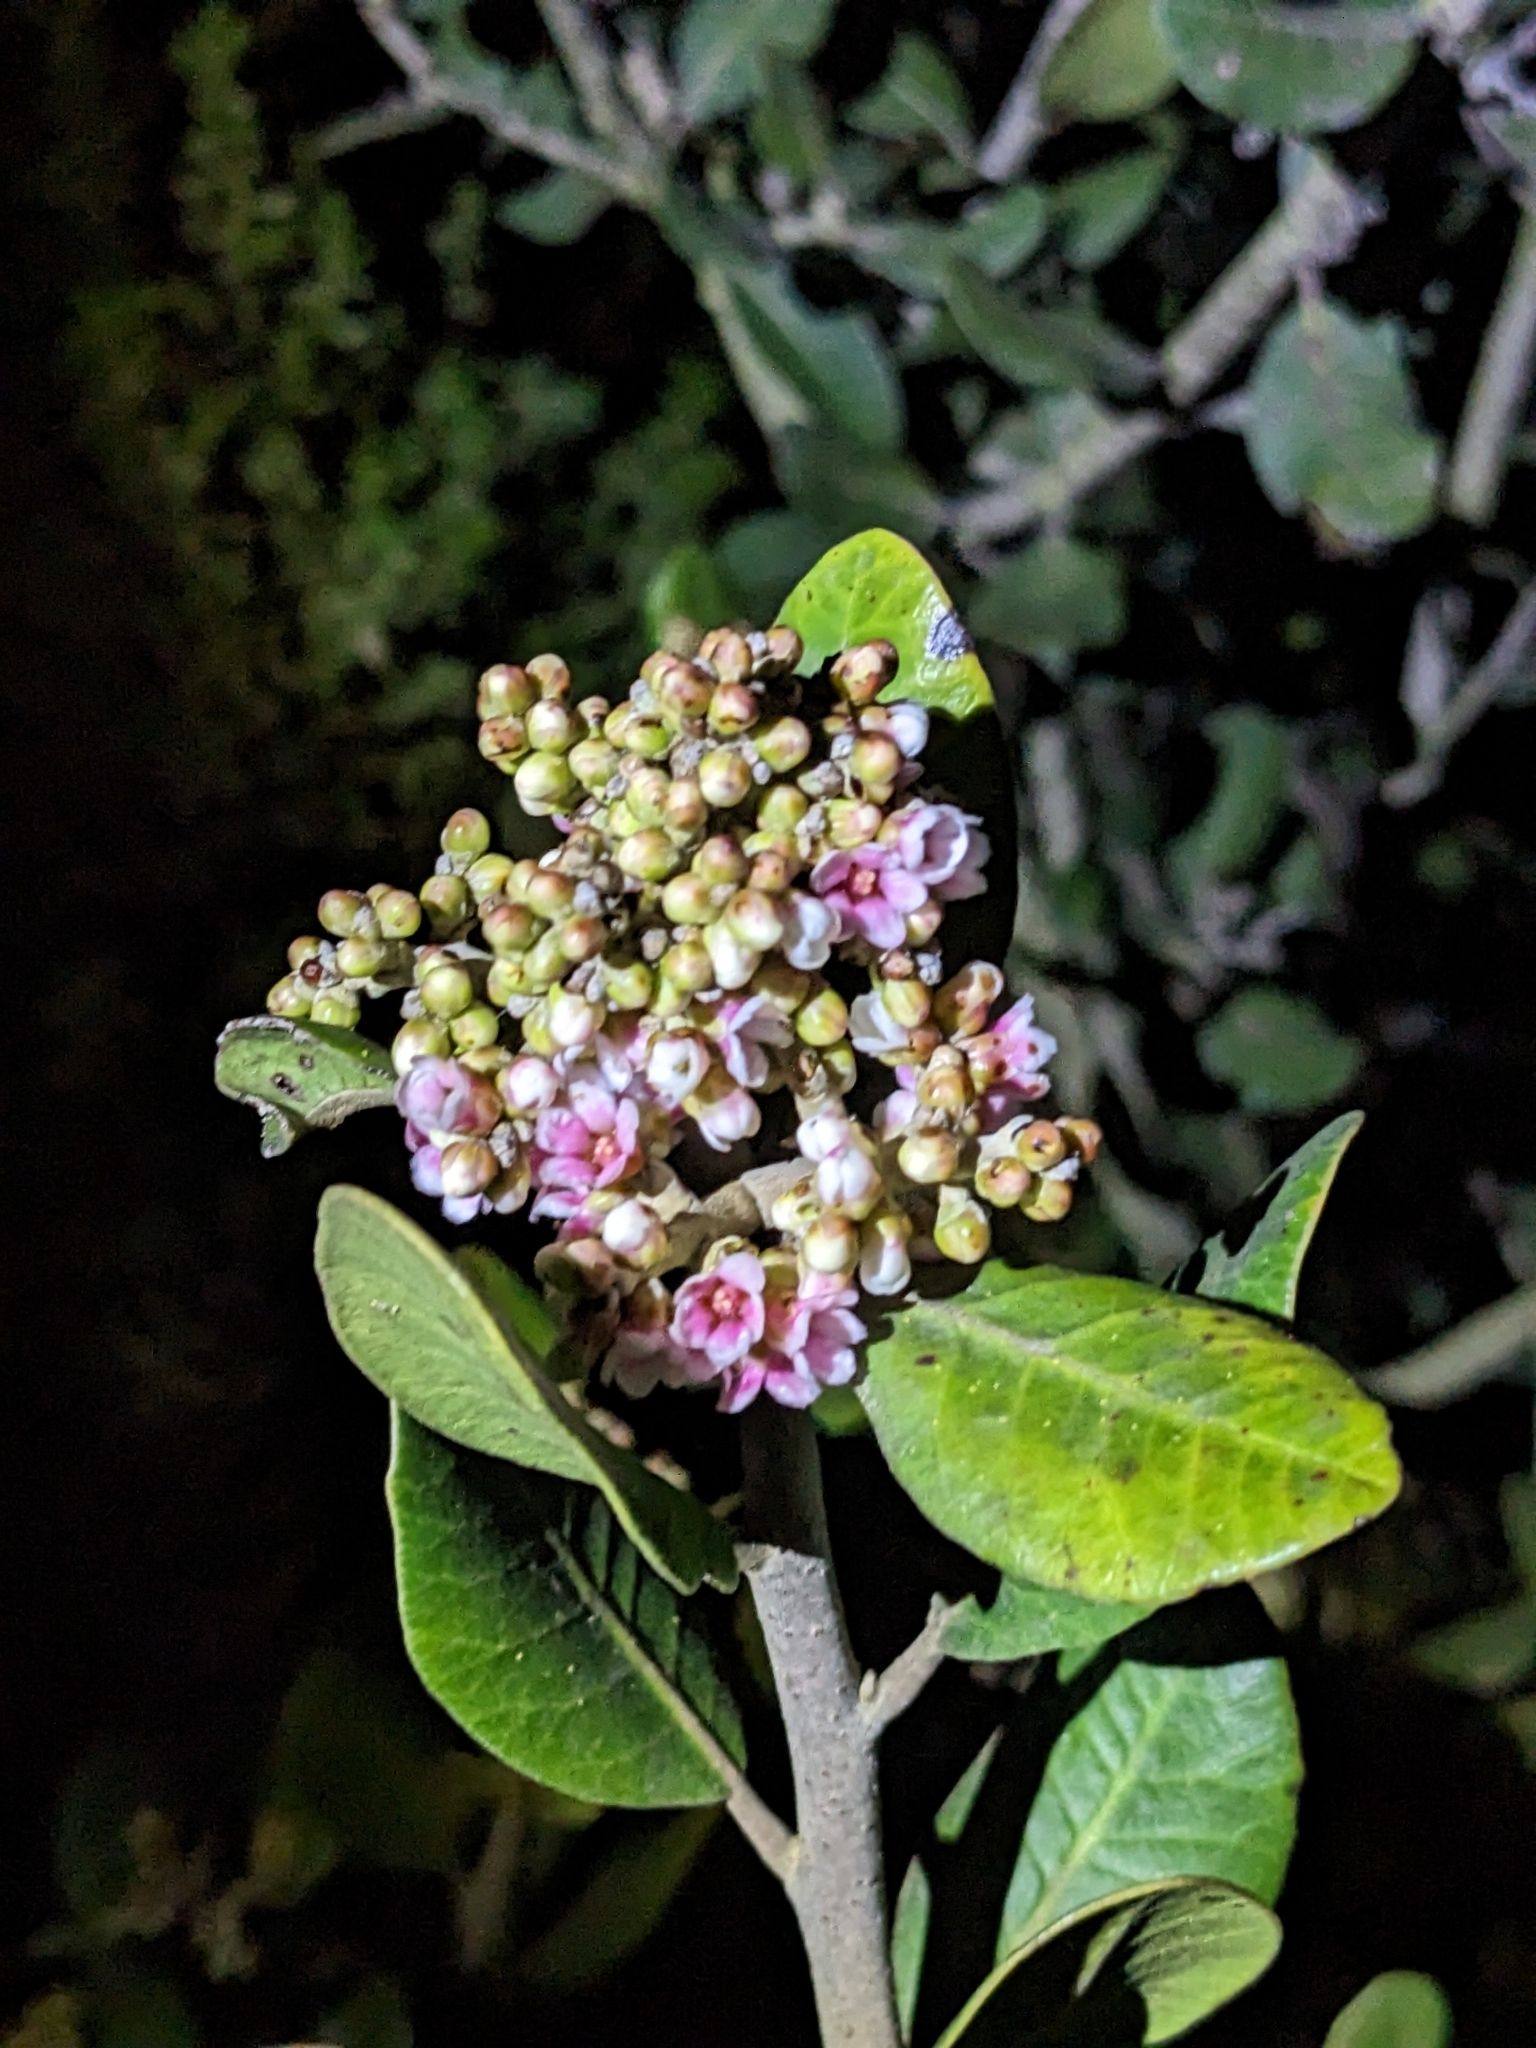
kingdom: Plantae
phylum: Tracheophyta
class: Magnoliopsida
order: Sapindales
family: Anacardiaceae
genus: Rhus
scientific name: Rhus integrifolia
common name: Lemonade sumac
